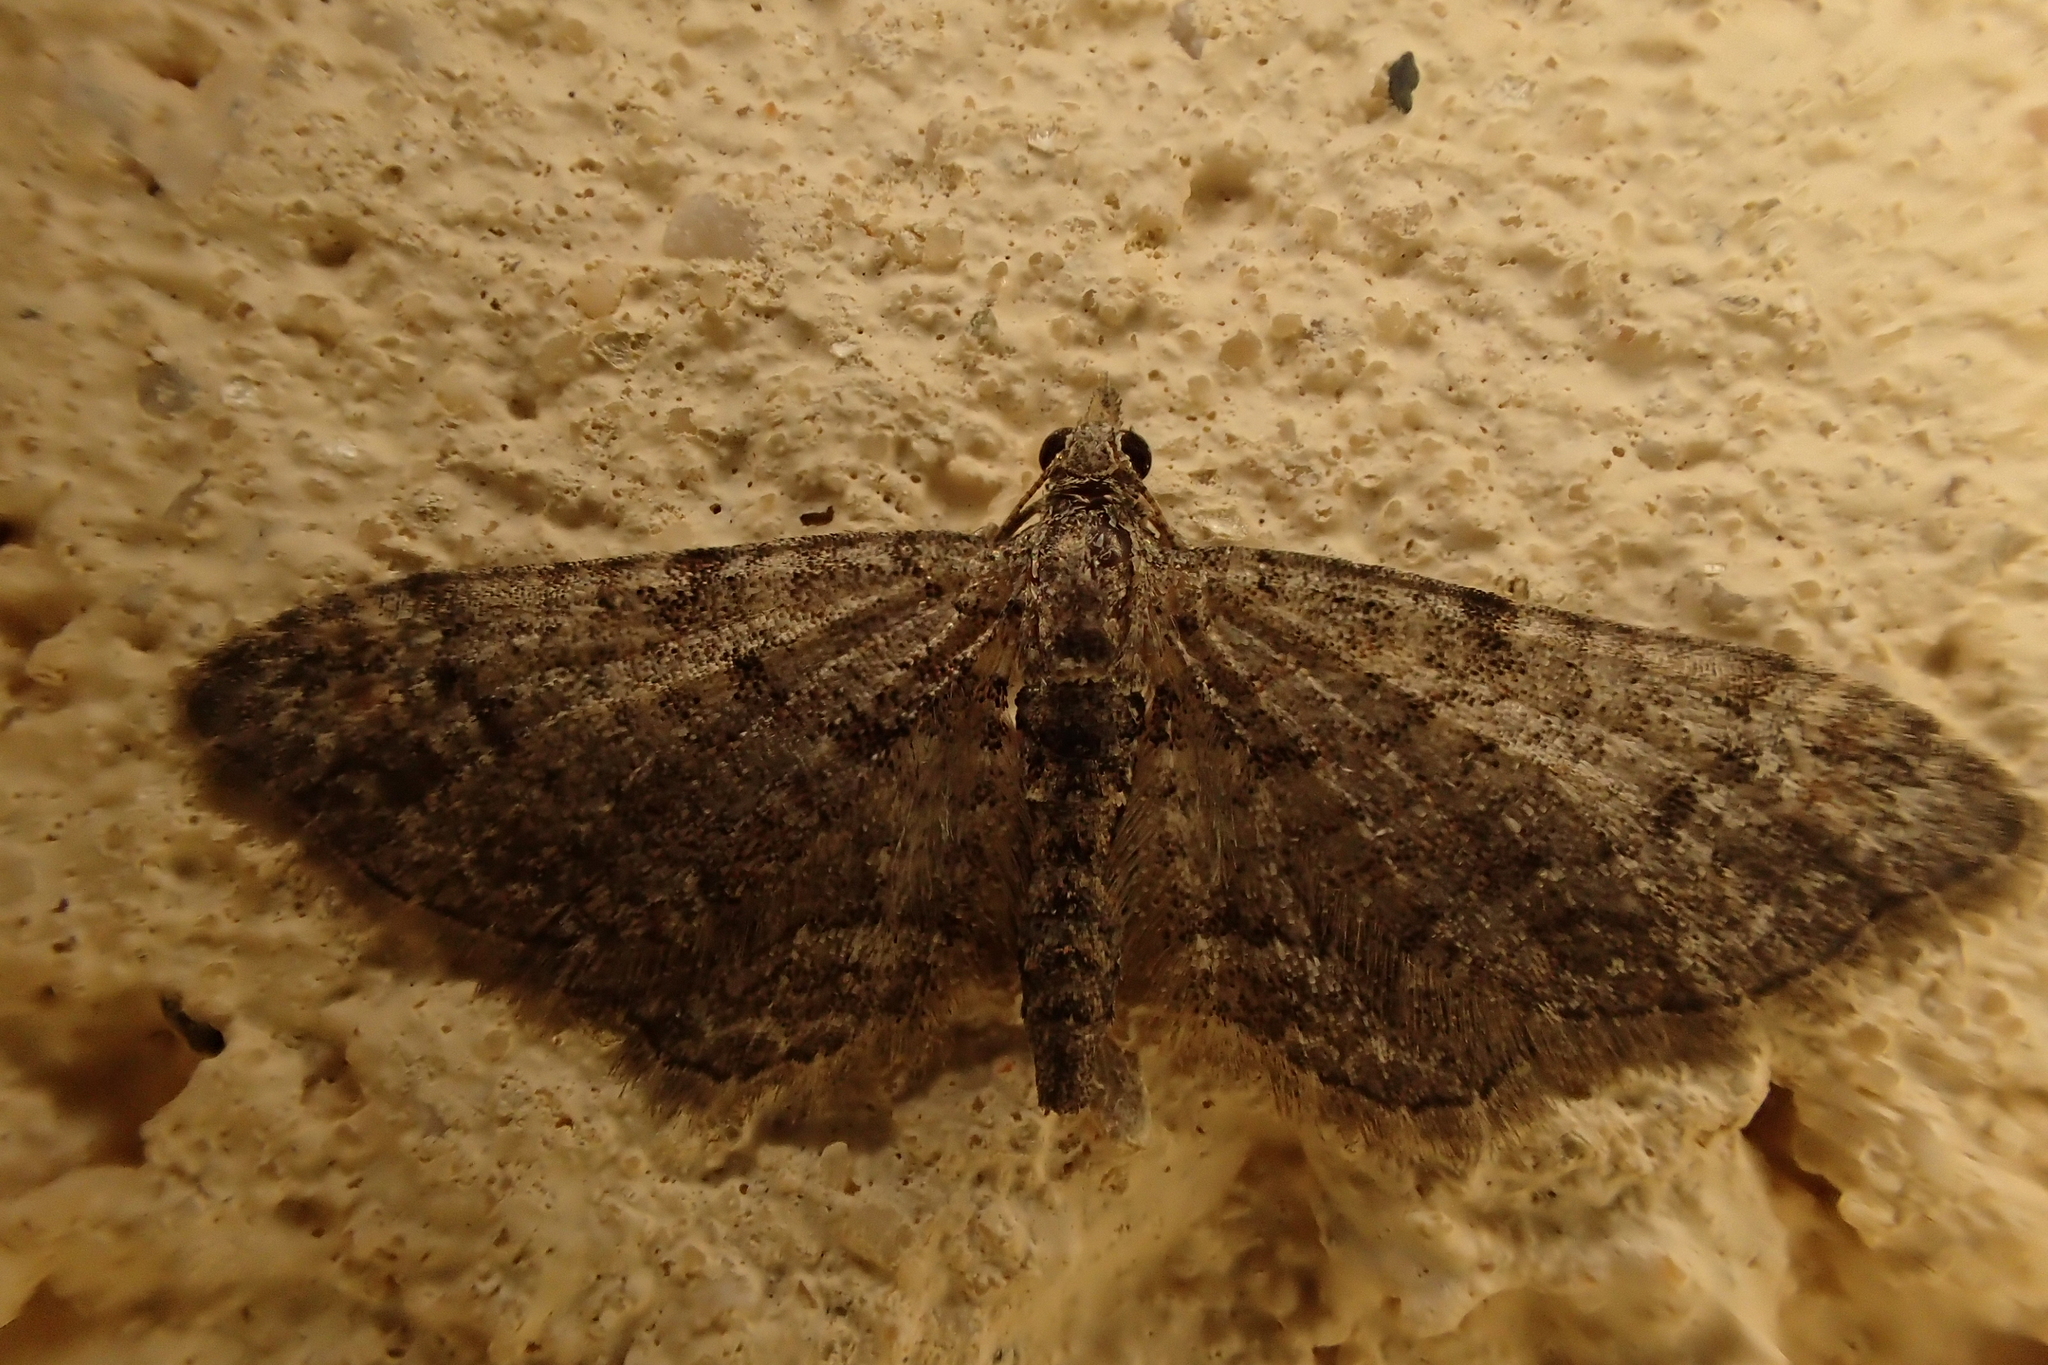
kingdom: Animalia
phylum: Arthropoda
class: Insecta
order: Lepidoptera
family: Geometridae
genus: Gymnoscelis
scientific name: Gymnoscelis rufifasciata
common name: Double-striped pug
